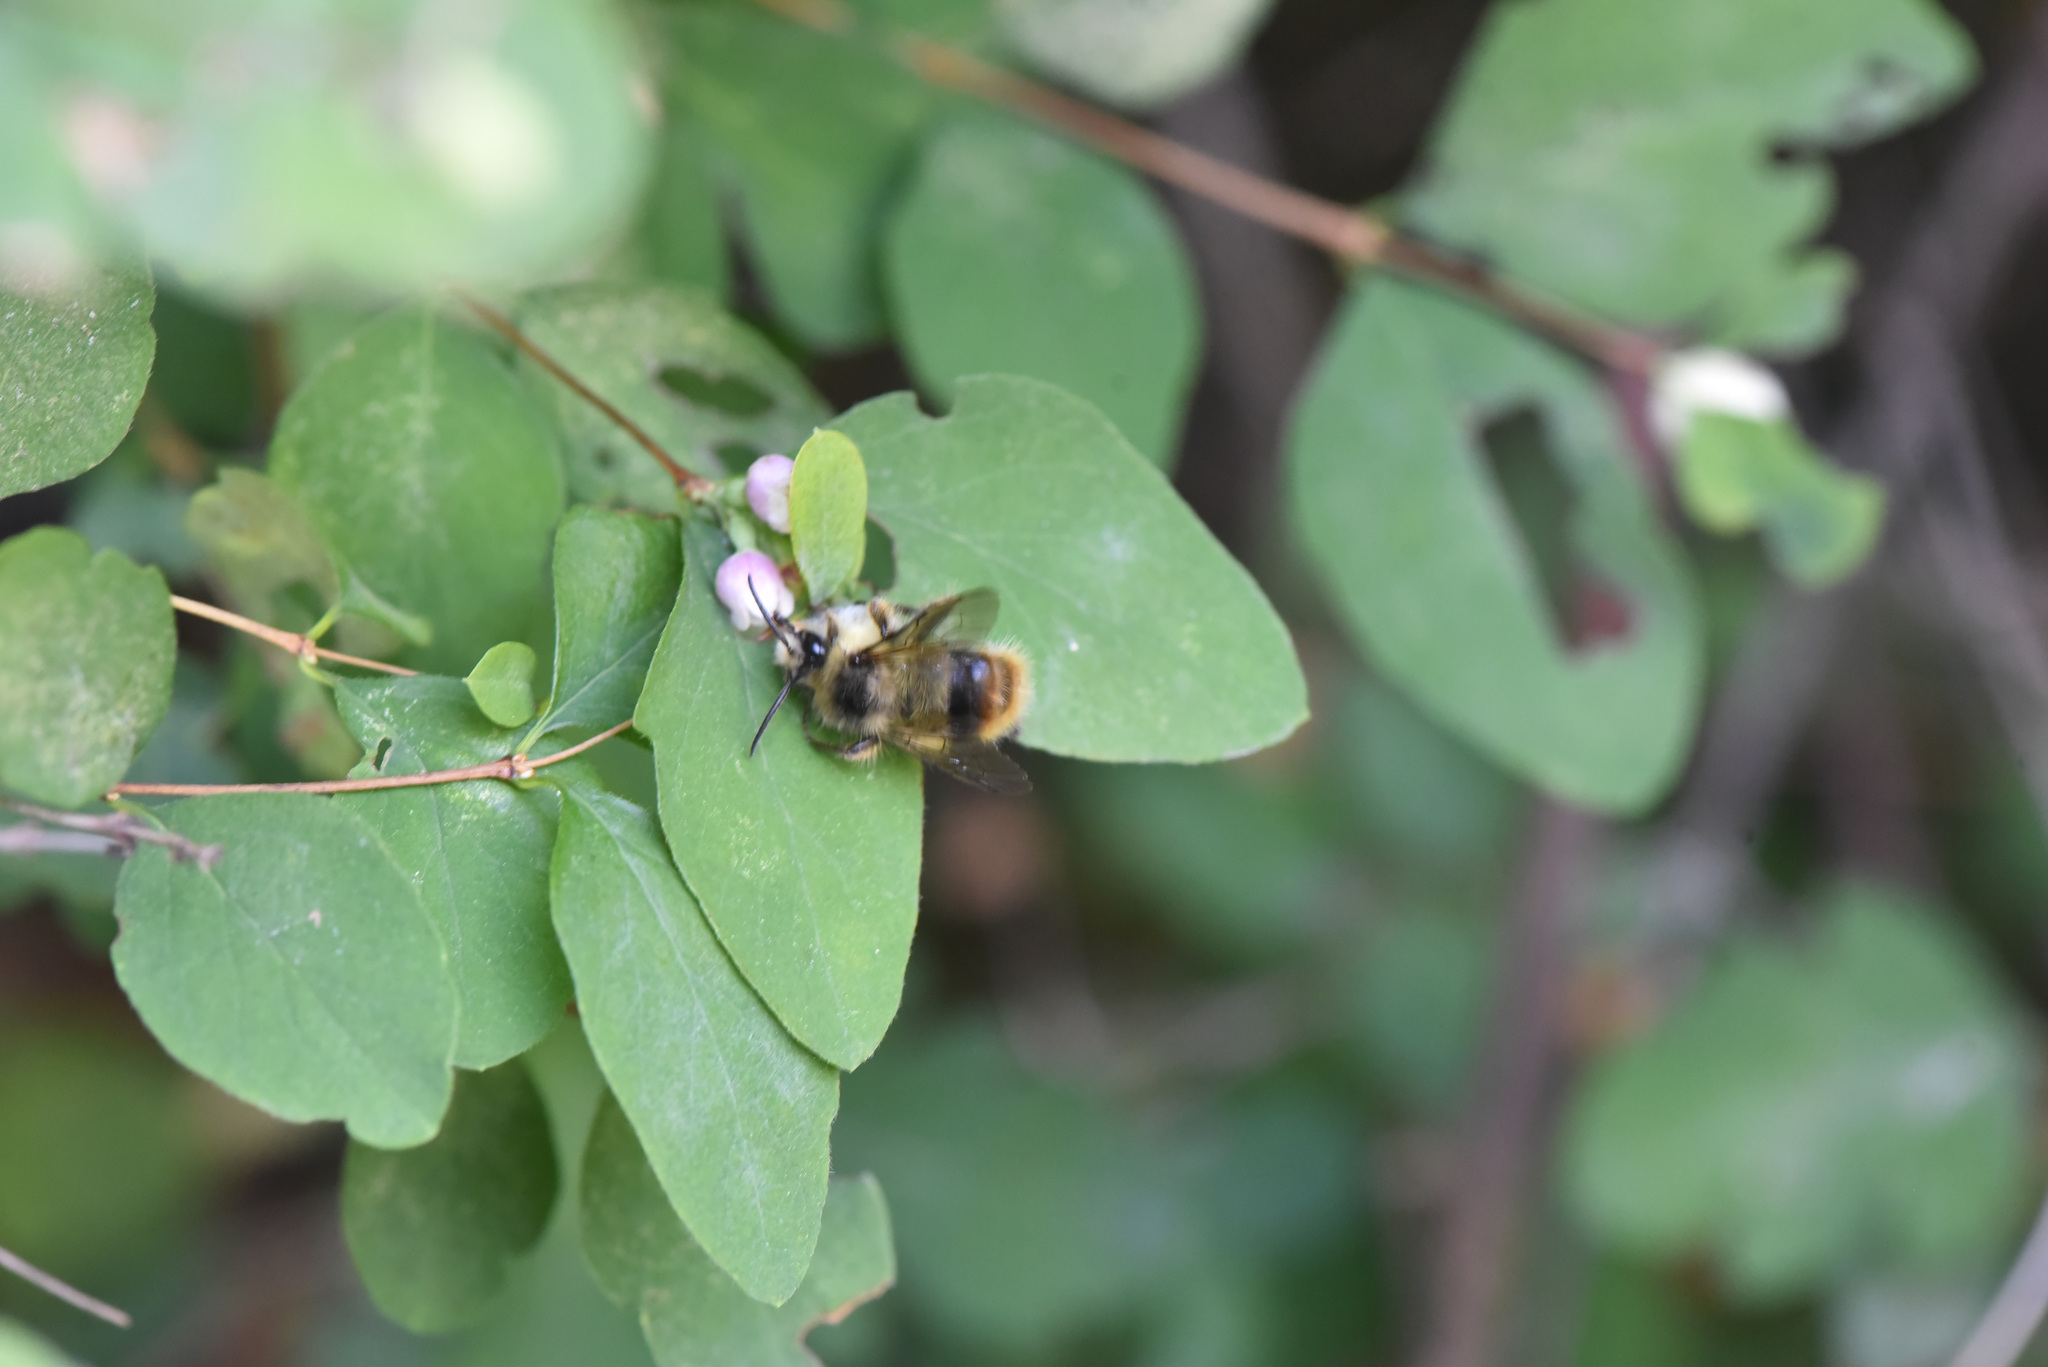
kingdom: Animalia
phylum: Arthropoda
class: Insecta
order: Hymenoptera
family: Apidae
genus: Bombus
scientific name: Bombus mixtus
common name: Fuzzy-horned bumble bee
